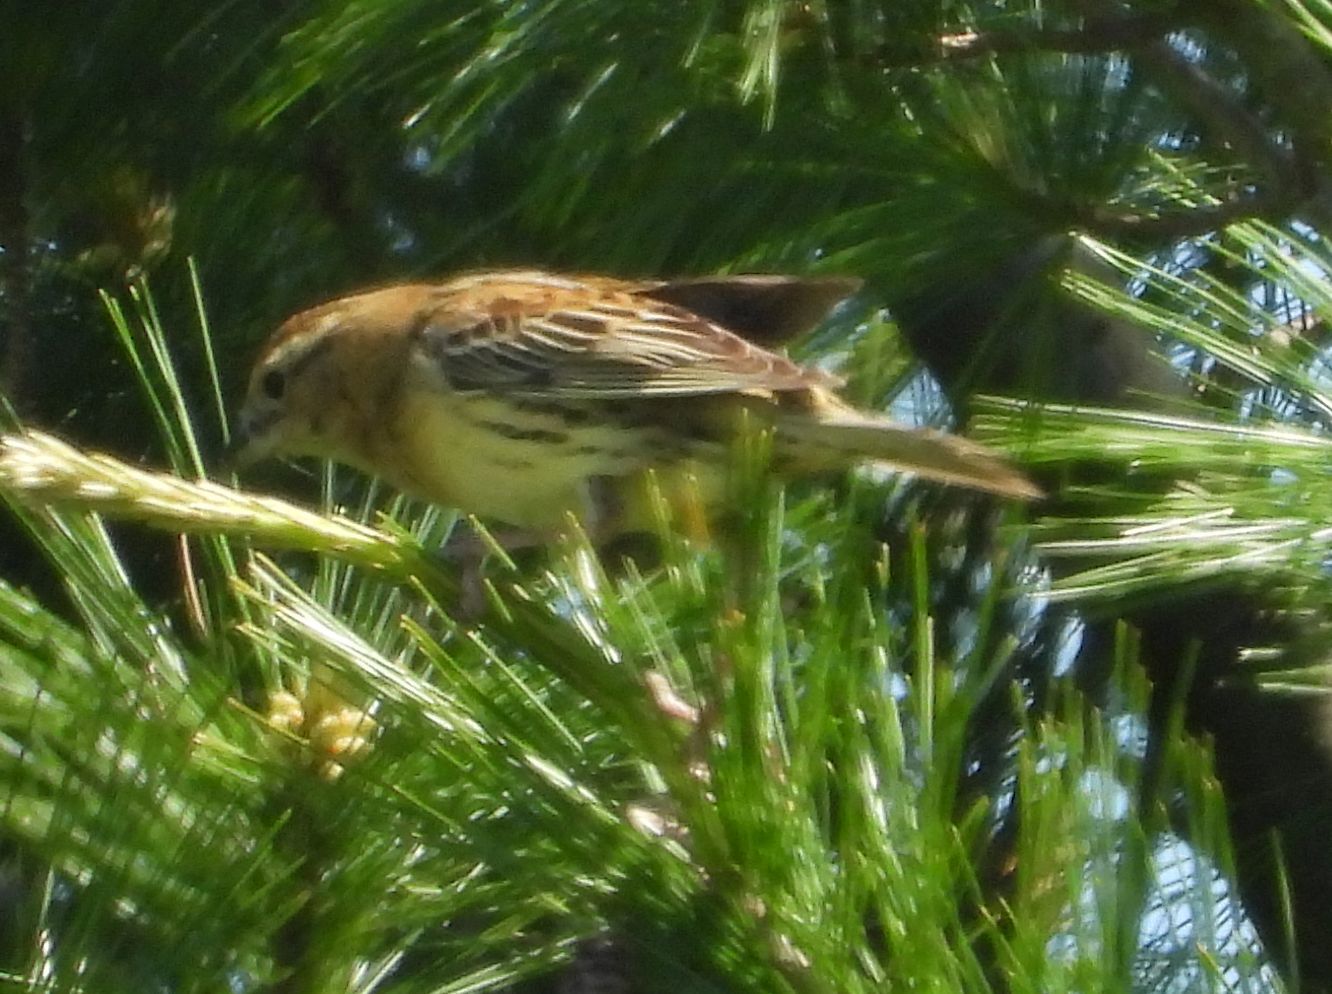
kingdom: Animalia
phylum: Chordata
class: Aves
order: Passeriformes
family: Icteridae
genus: Dolichonyx
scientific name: Dolichonyx oryzivorus
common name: Bobolink
